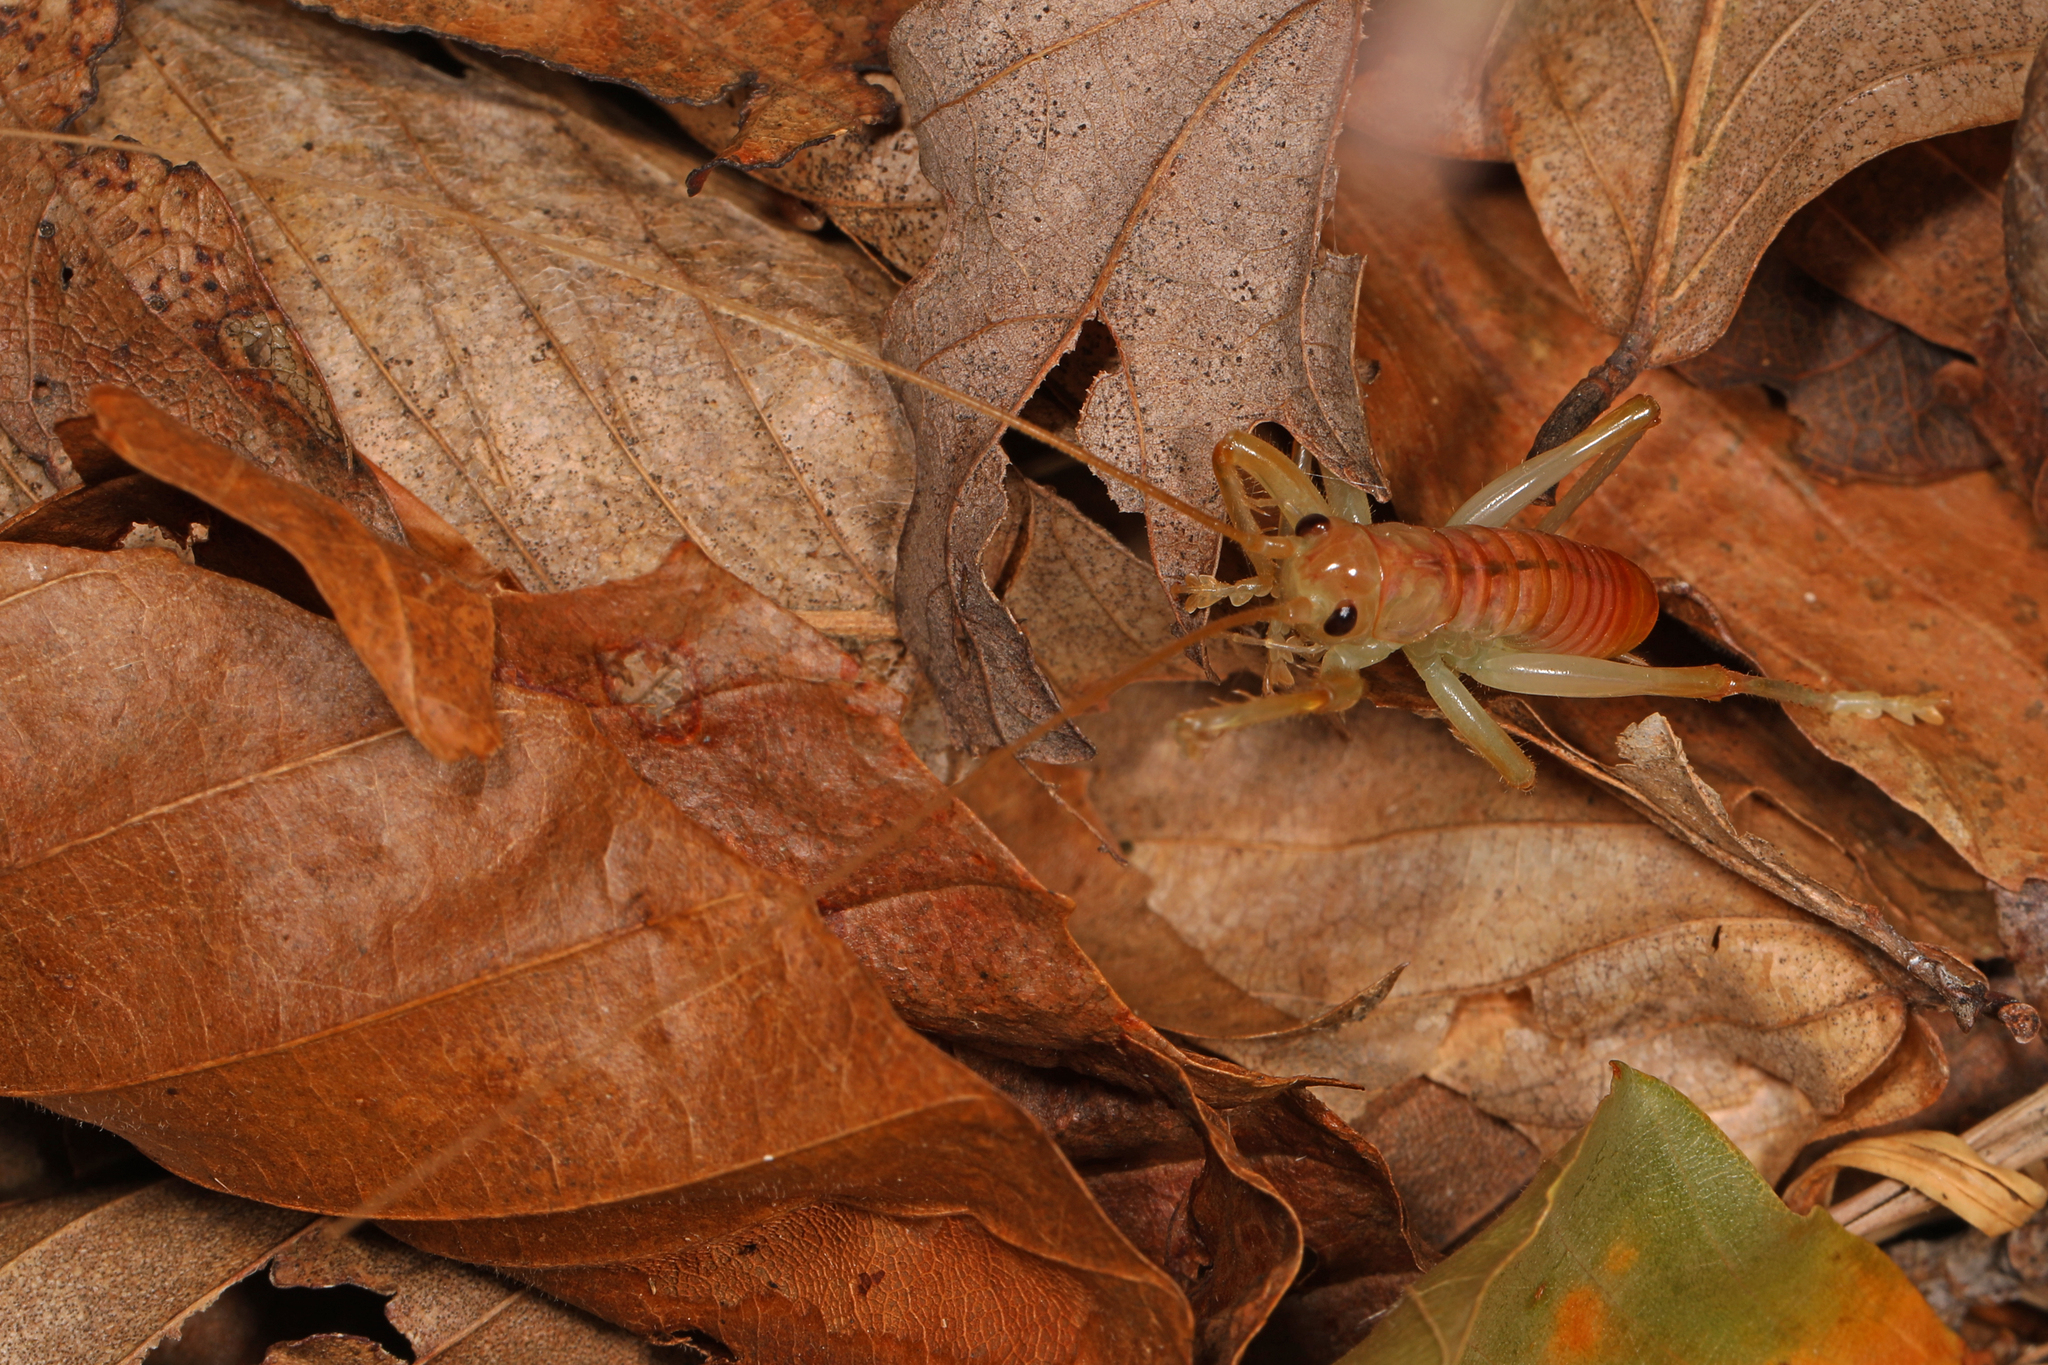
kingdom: Animalia
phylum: Arthropoda
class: Insecta
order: Orthoptera
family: Gryllacrididae
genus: Camptonotus
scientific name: Camptonotus carolinensis
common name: Carolina leaf-roller
